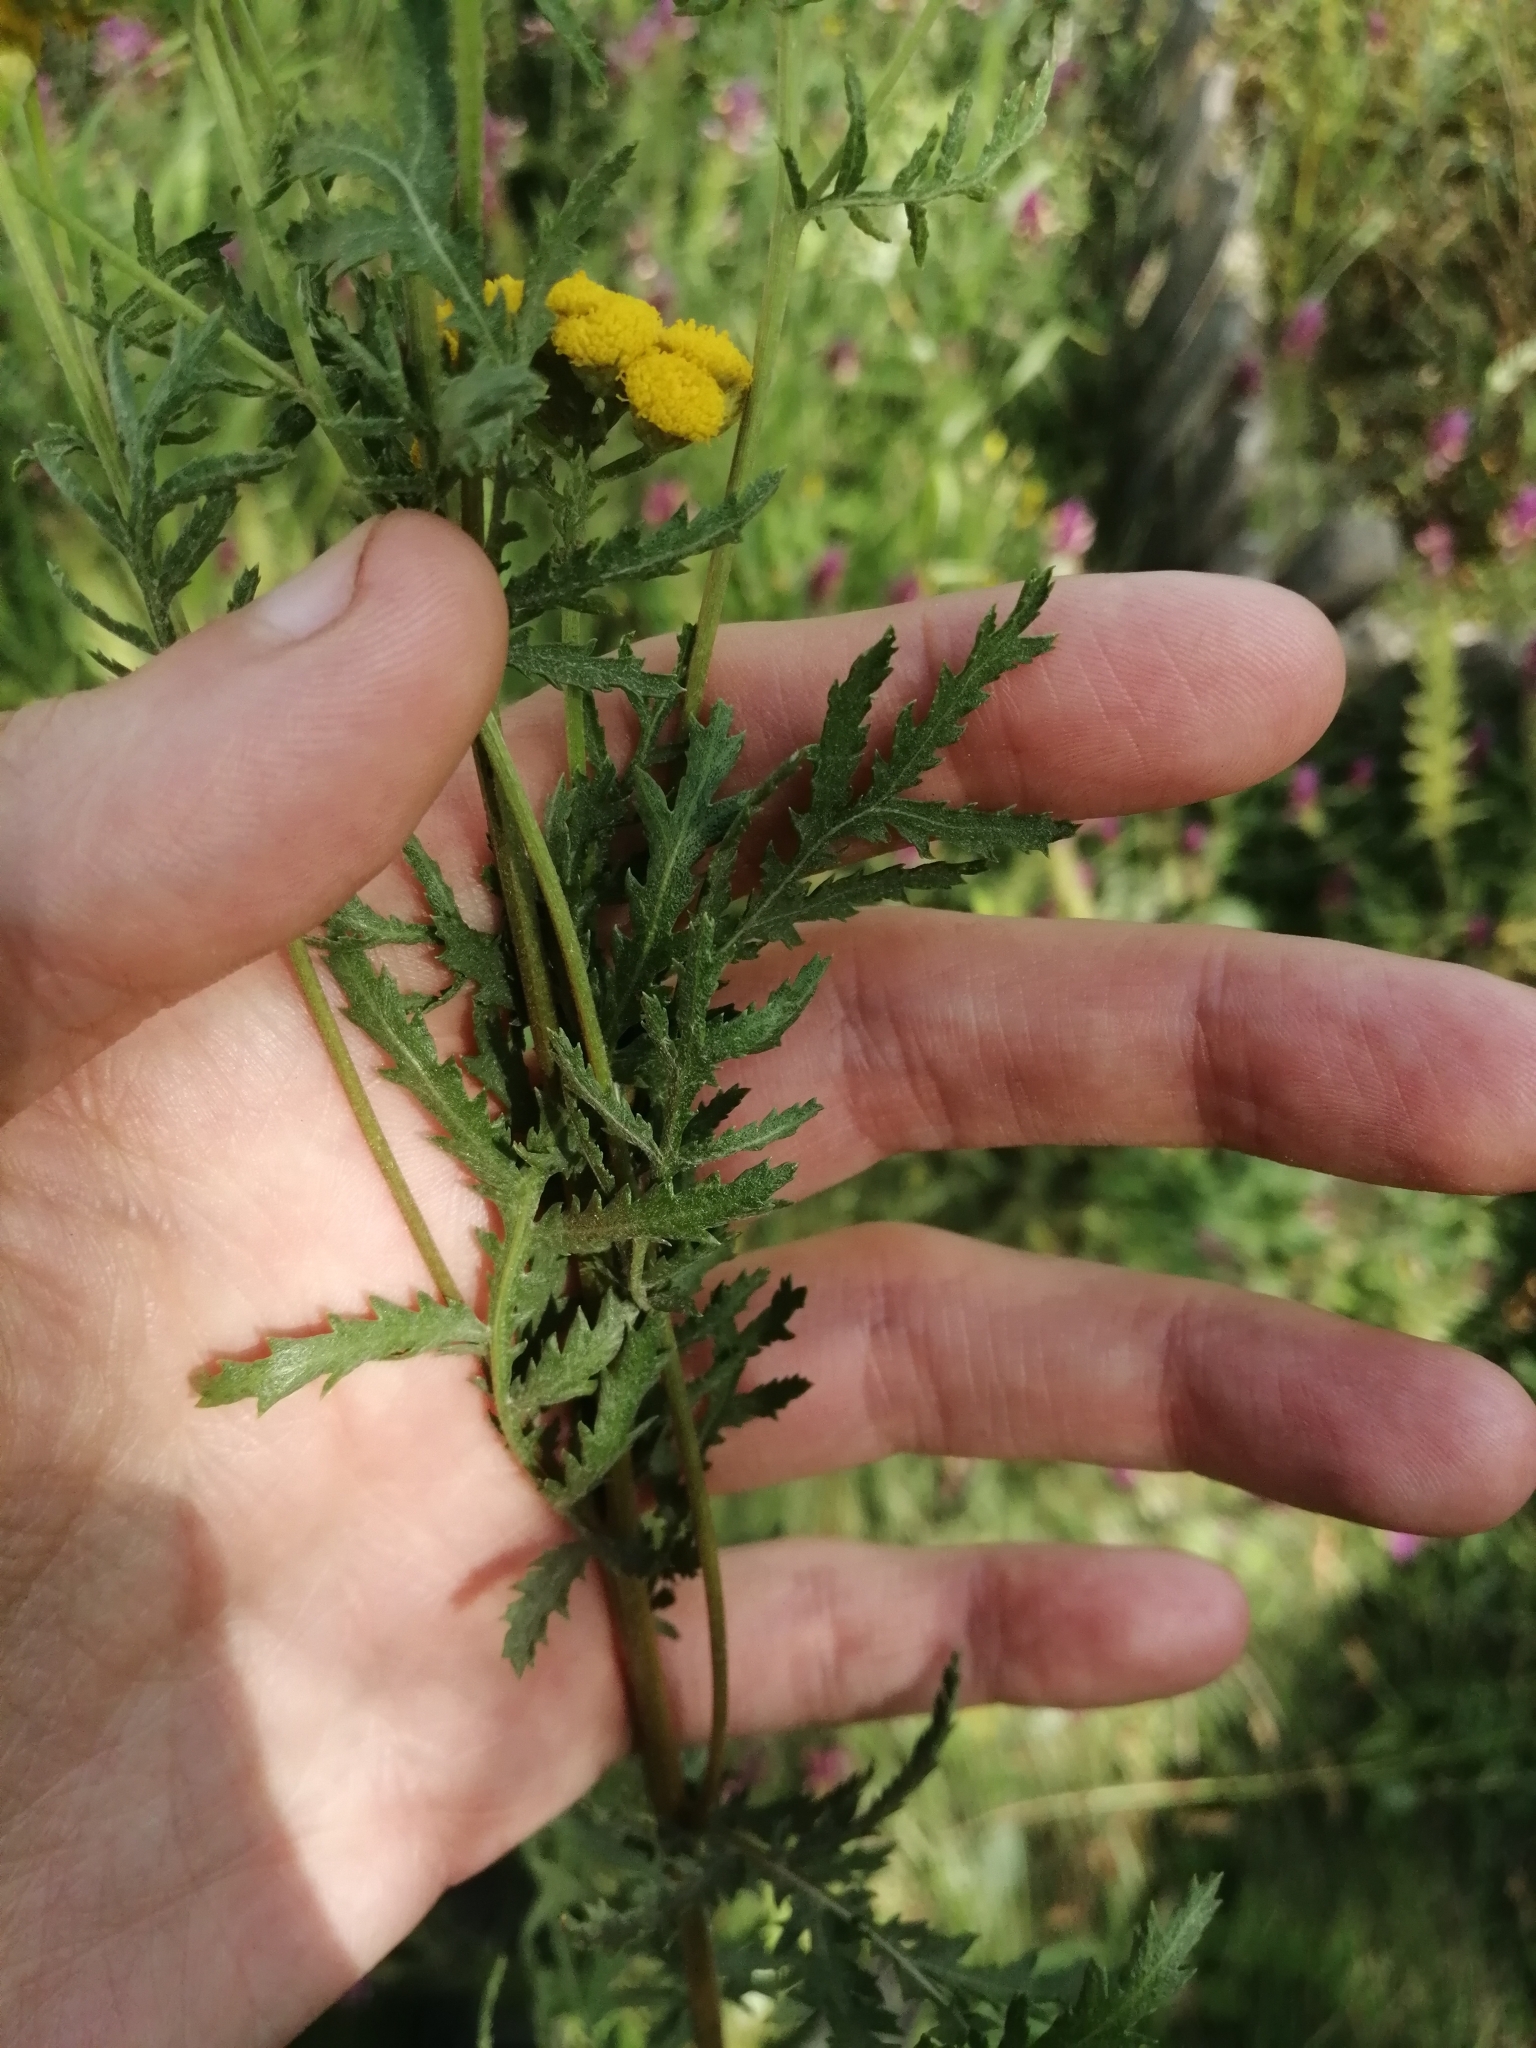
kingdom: Plantae
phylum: Tracheophyta
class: Magnoliopsida
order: Asterales
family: Asteraceae
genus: Tanacetum
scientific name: Tanacetum vulgare
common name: Common tansy
